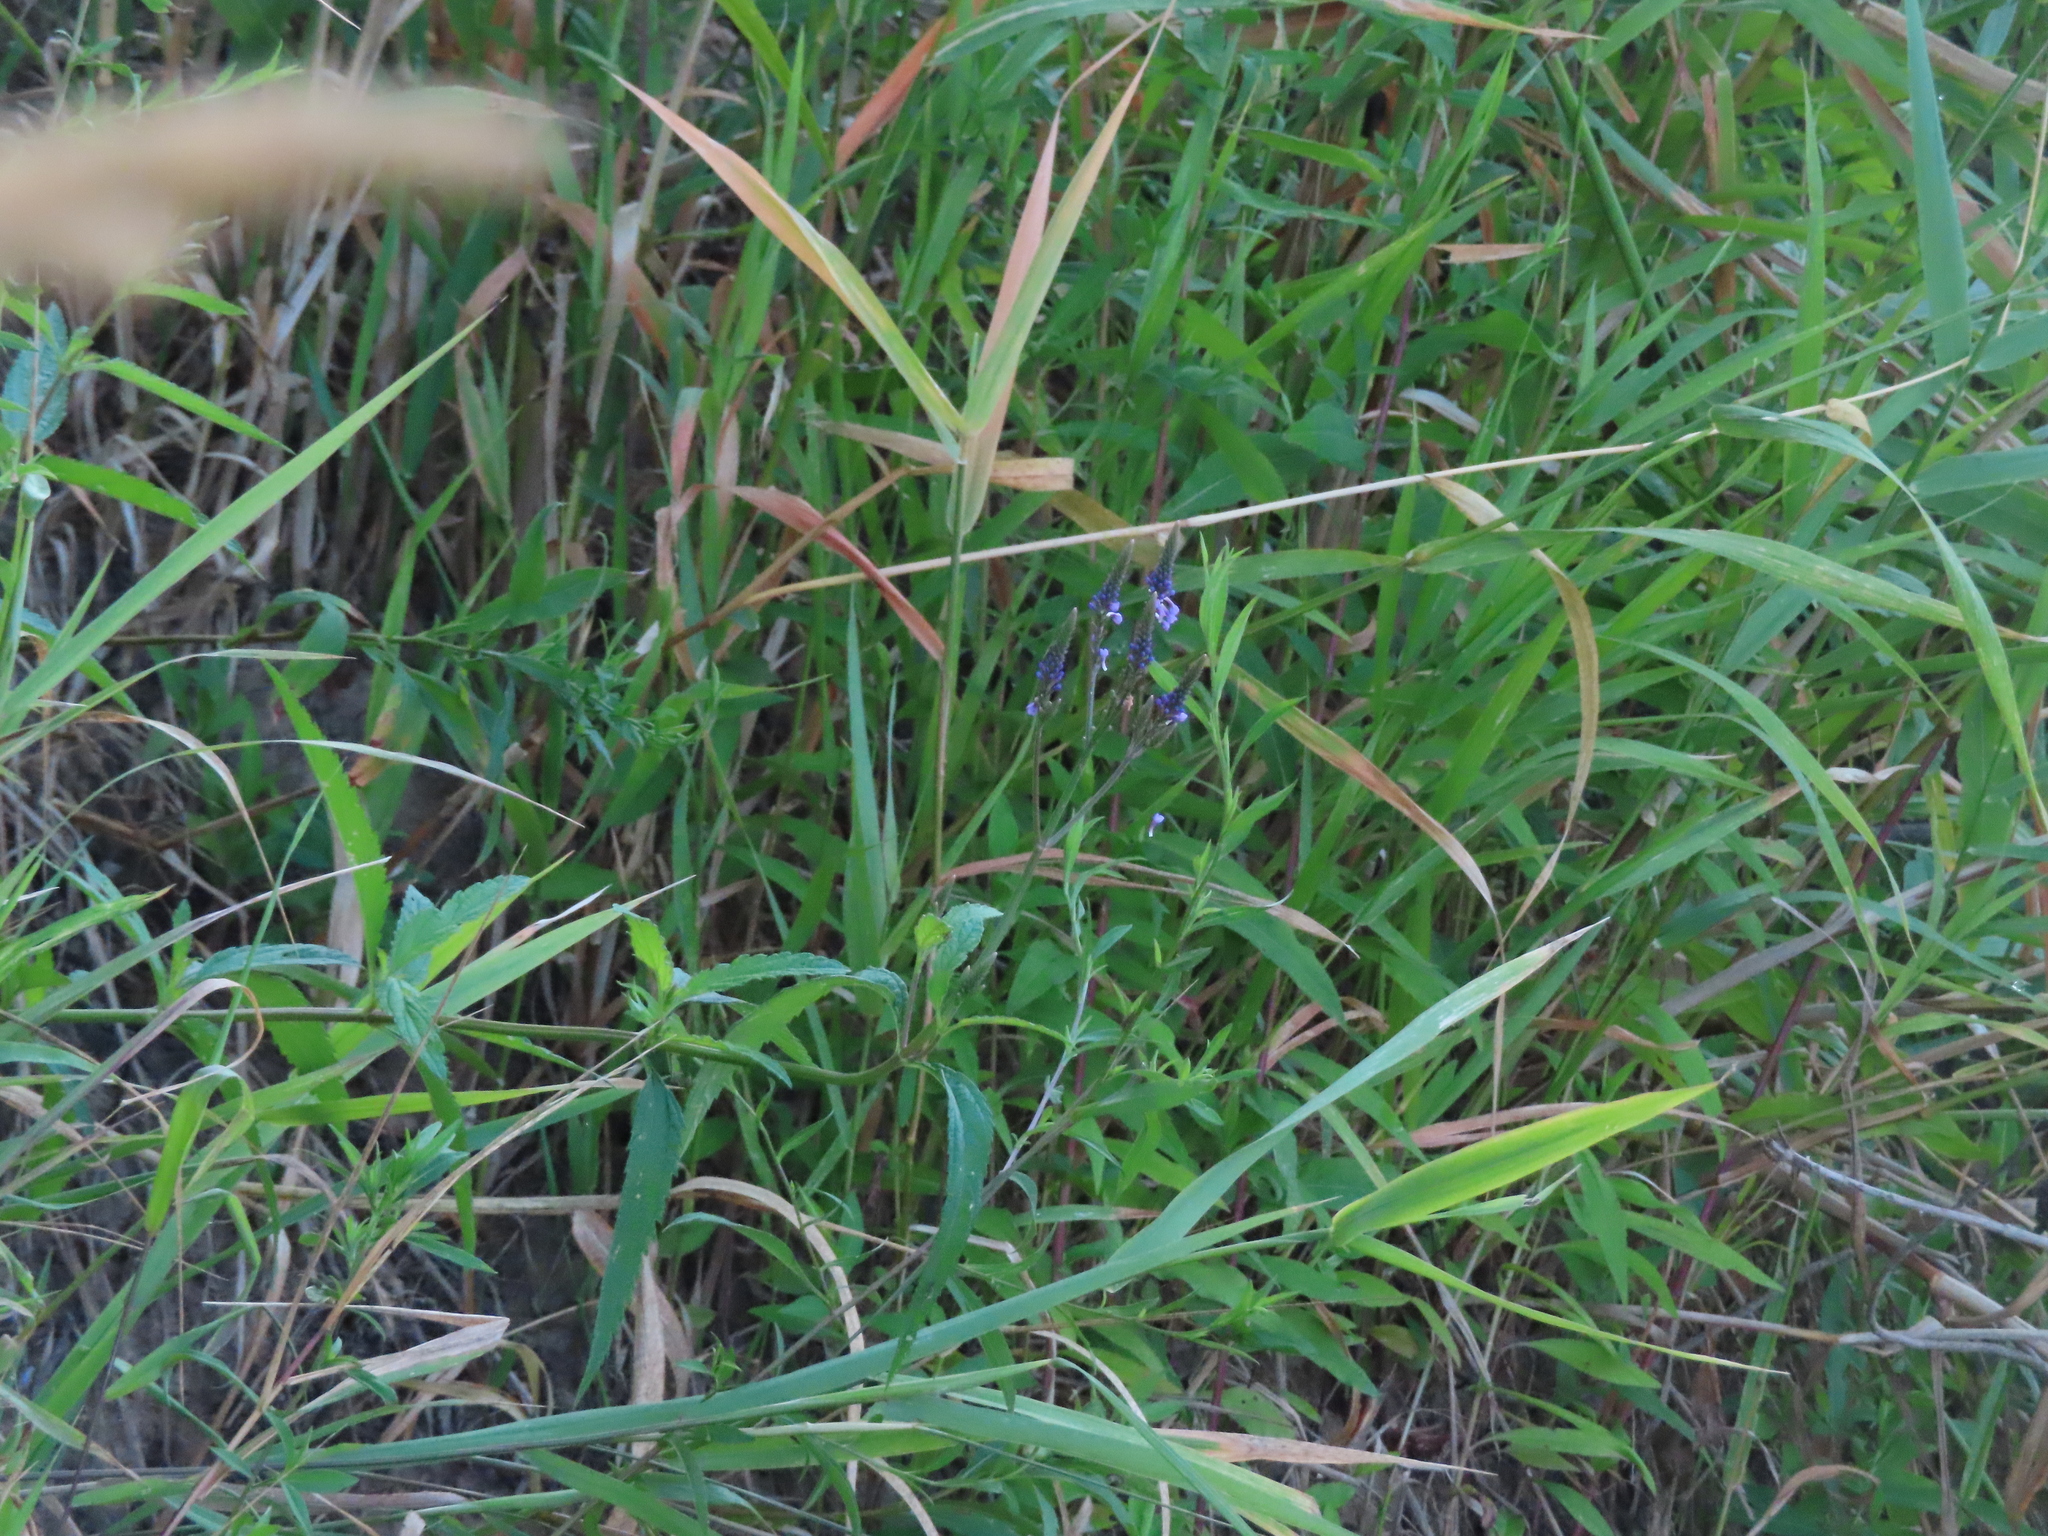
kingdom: Plantae
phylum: Tracheophyta
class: Magnoliopsida
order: Lamiales
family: Verbenaceae
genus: Verbena
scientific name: Verbena hastata
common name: American blue vervain
